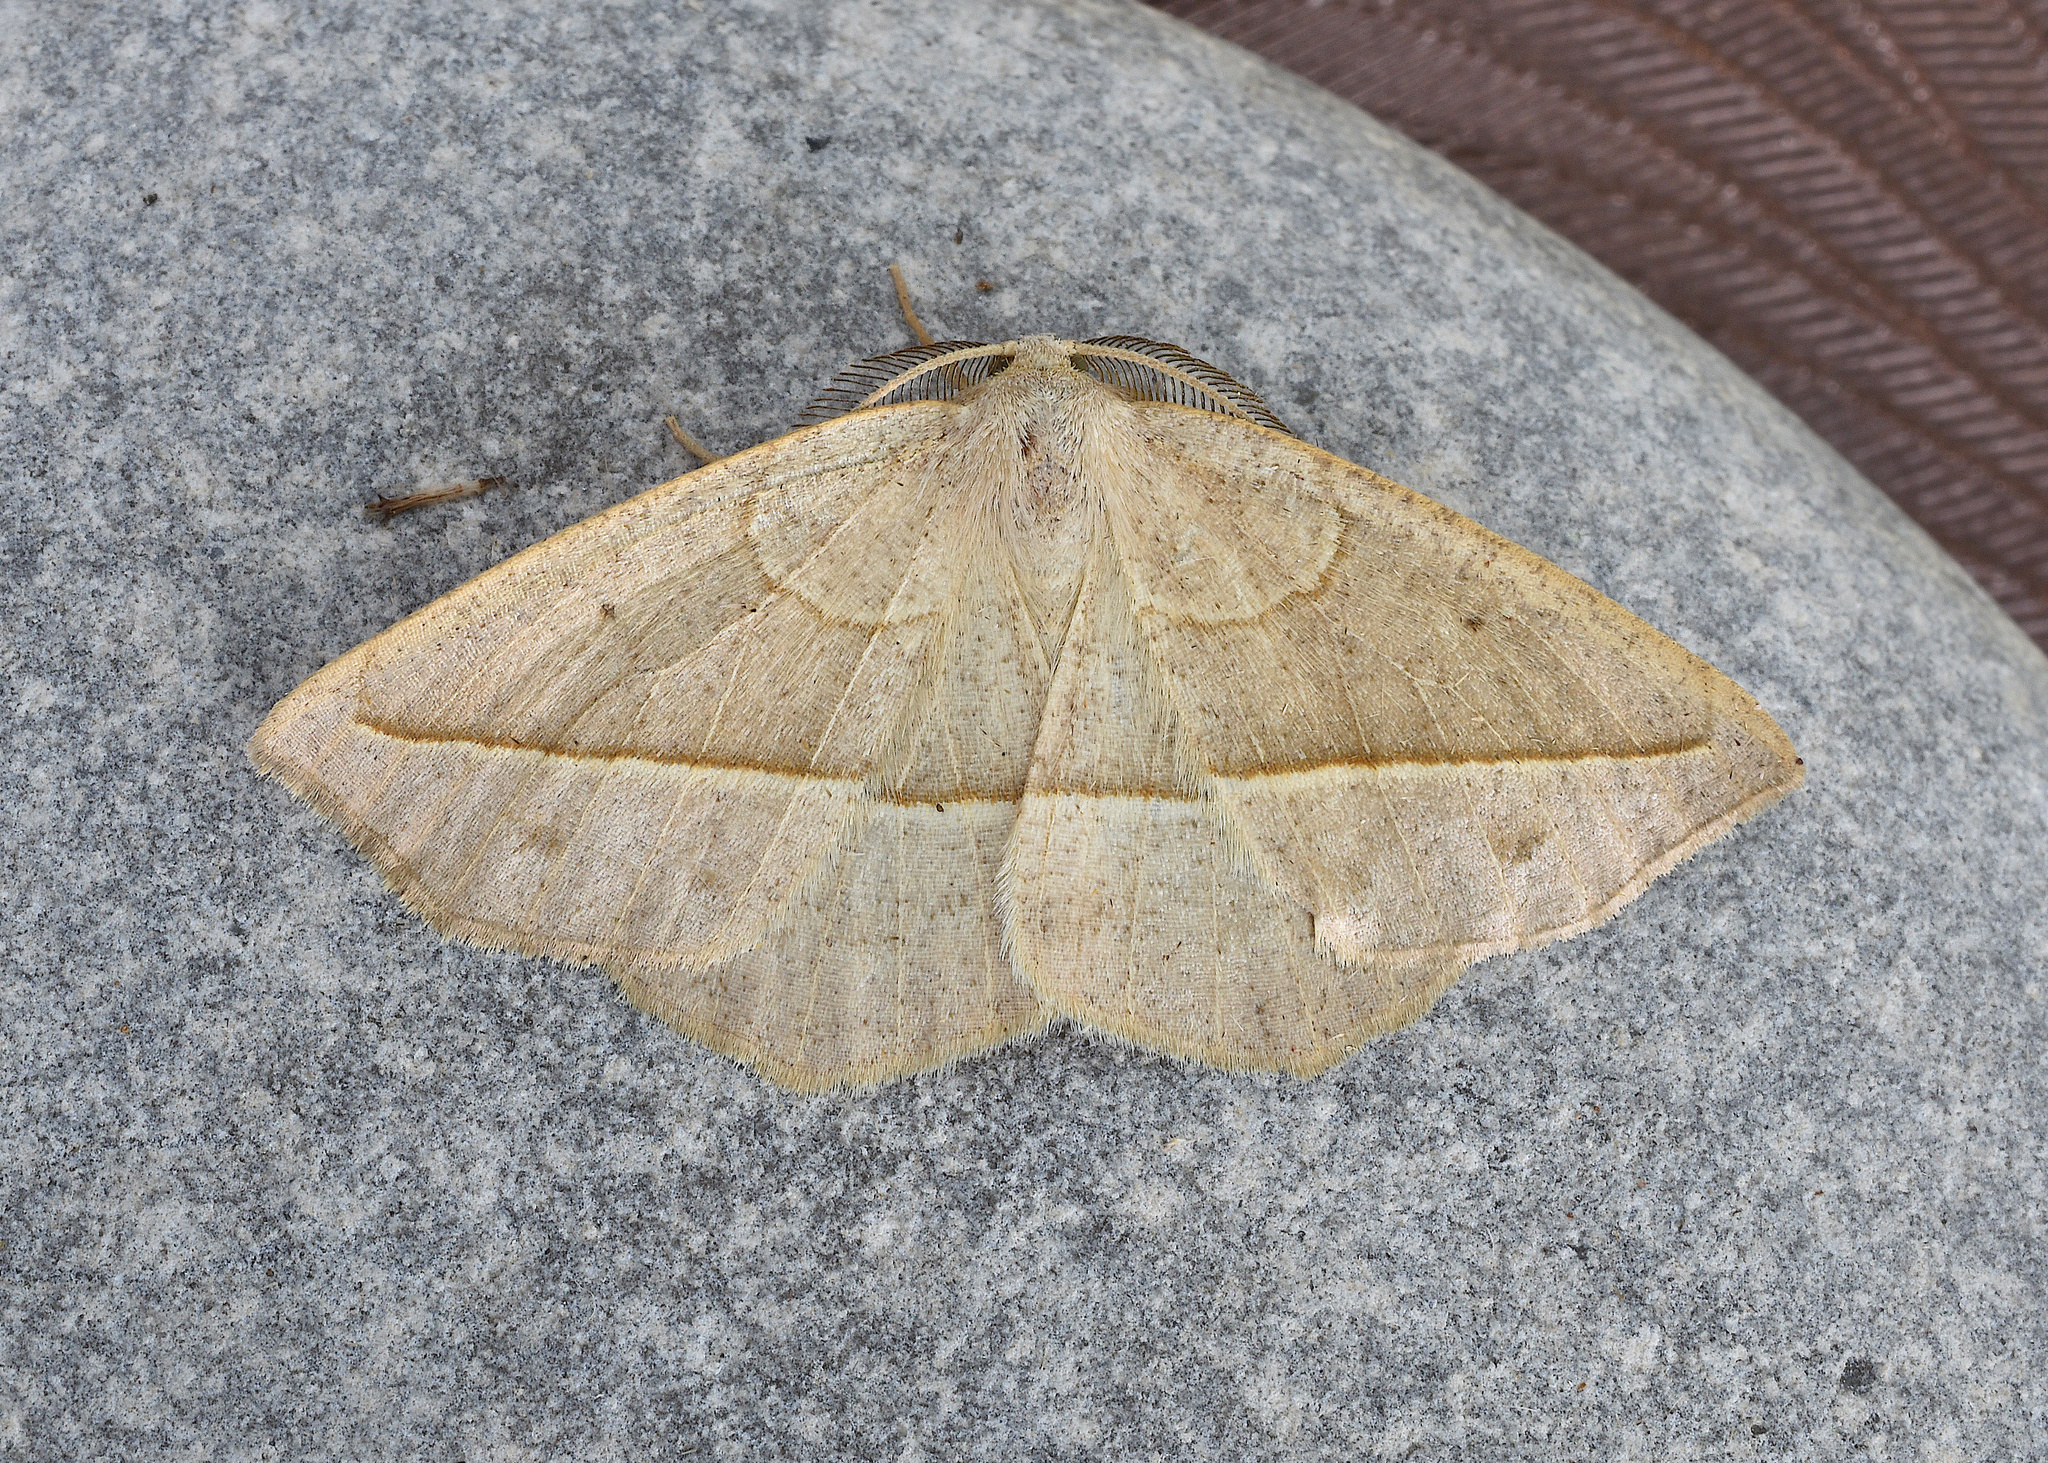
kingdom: Animalia
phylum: Arthropoda
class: Insecta
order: Lepidoptera
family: Geometridae
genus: Eusarca
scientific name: Eusarca confusaria
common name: Confused eusarca
